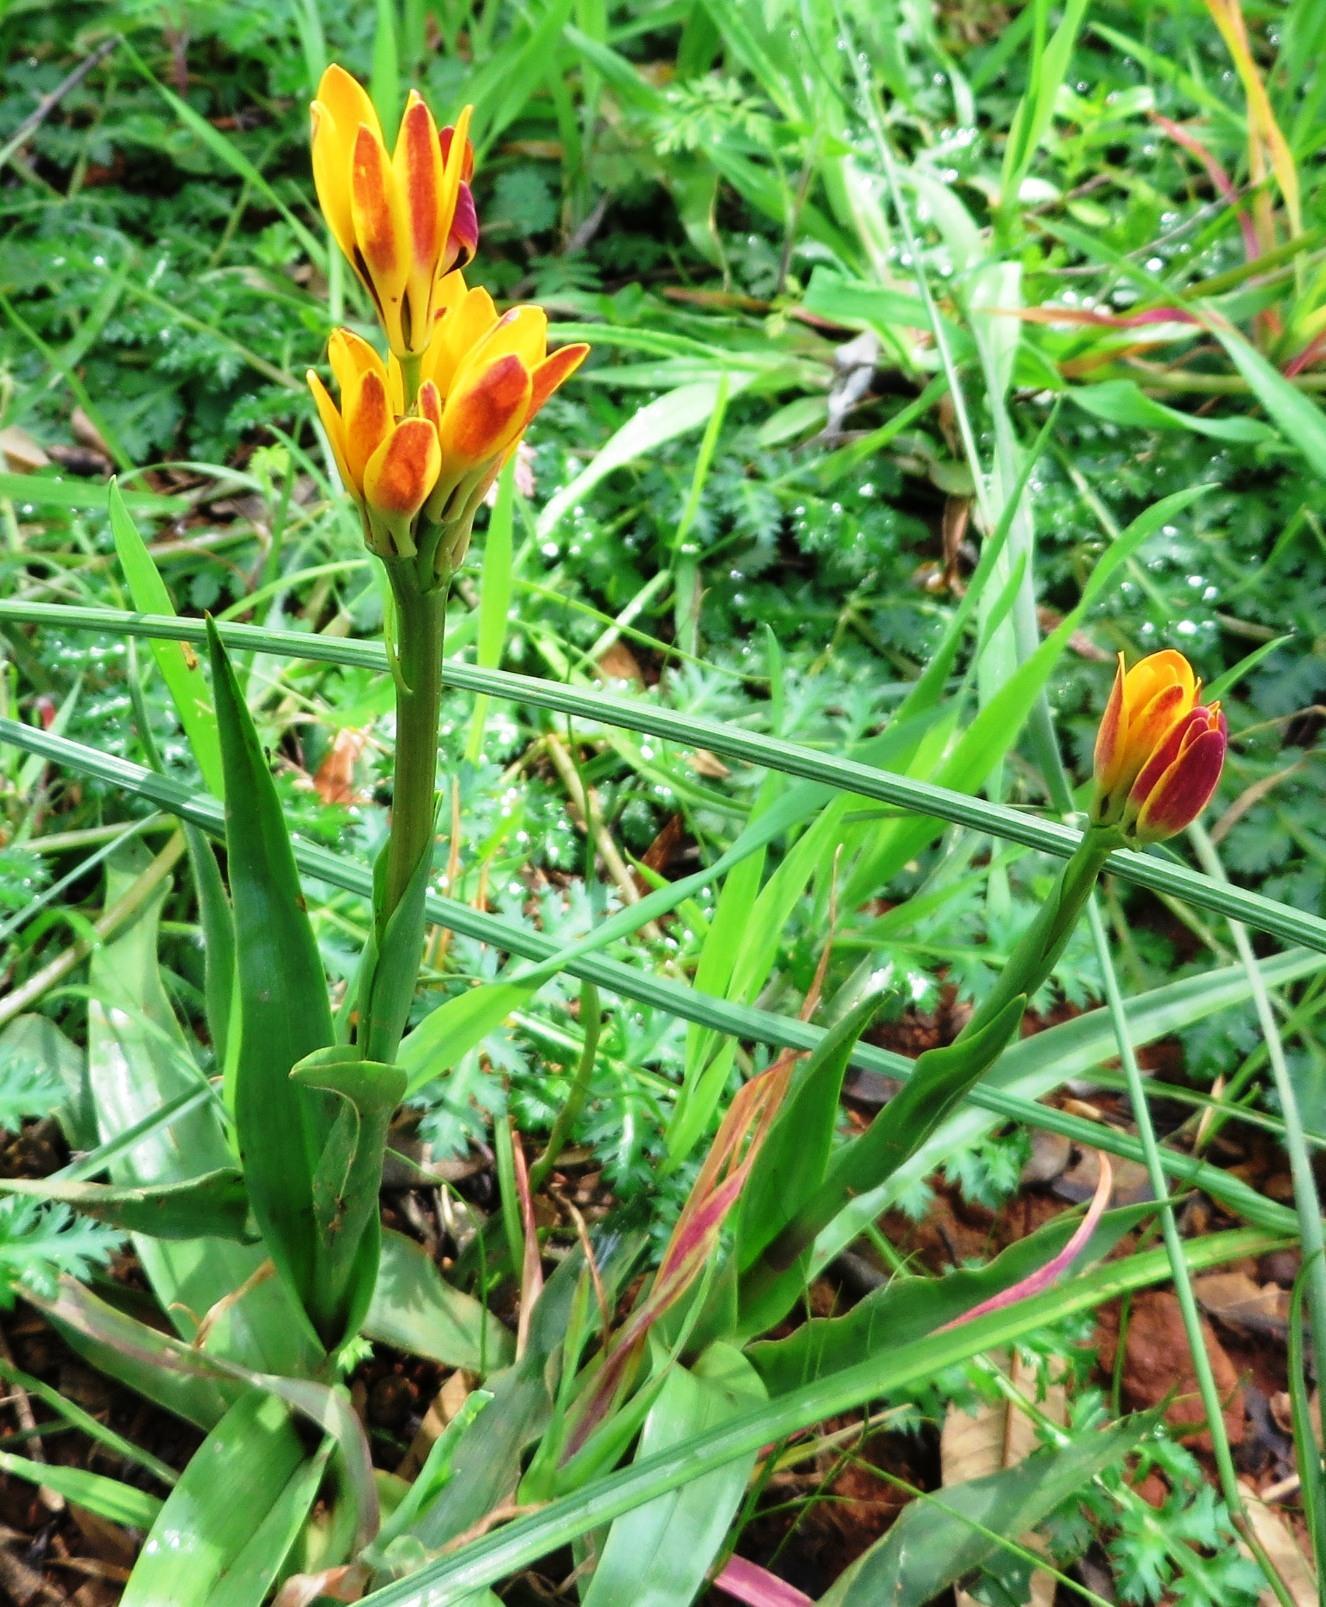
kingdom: Plantae
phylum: Tracheophyta
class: Liliopsida
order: Liliales
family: Colchicaceae
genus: Baeometra
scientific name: Baeometra uniflora
